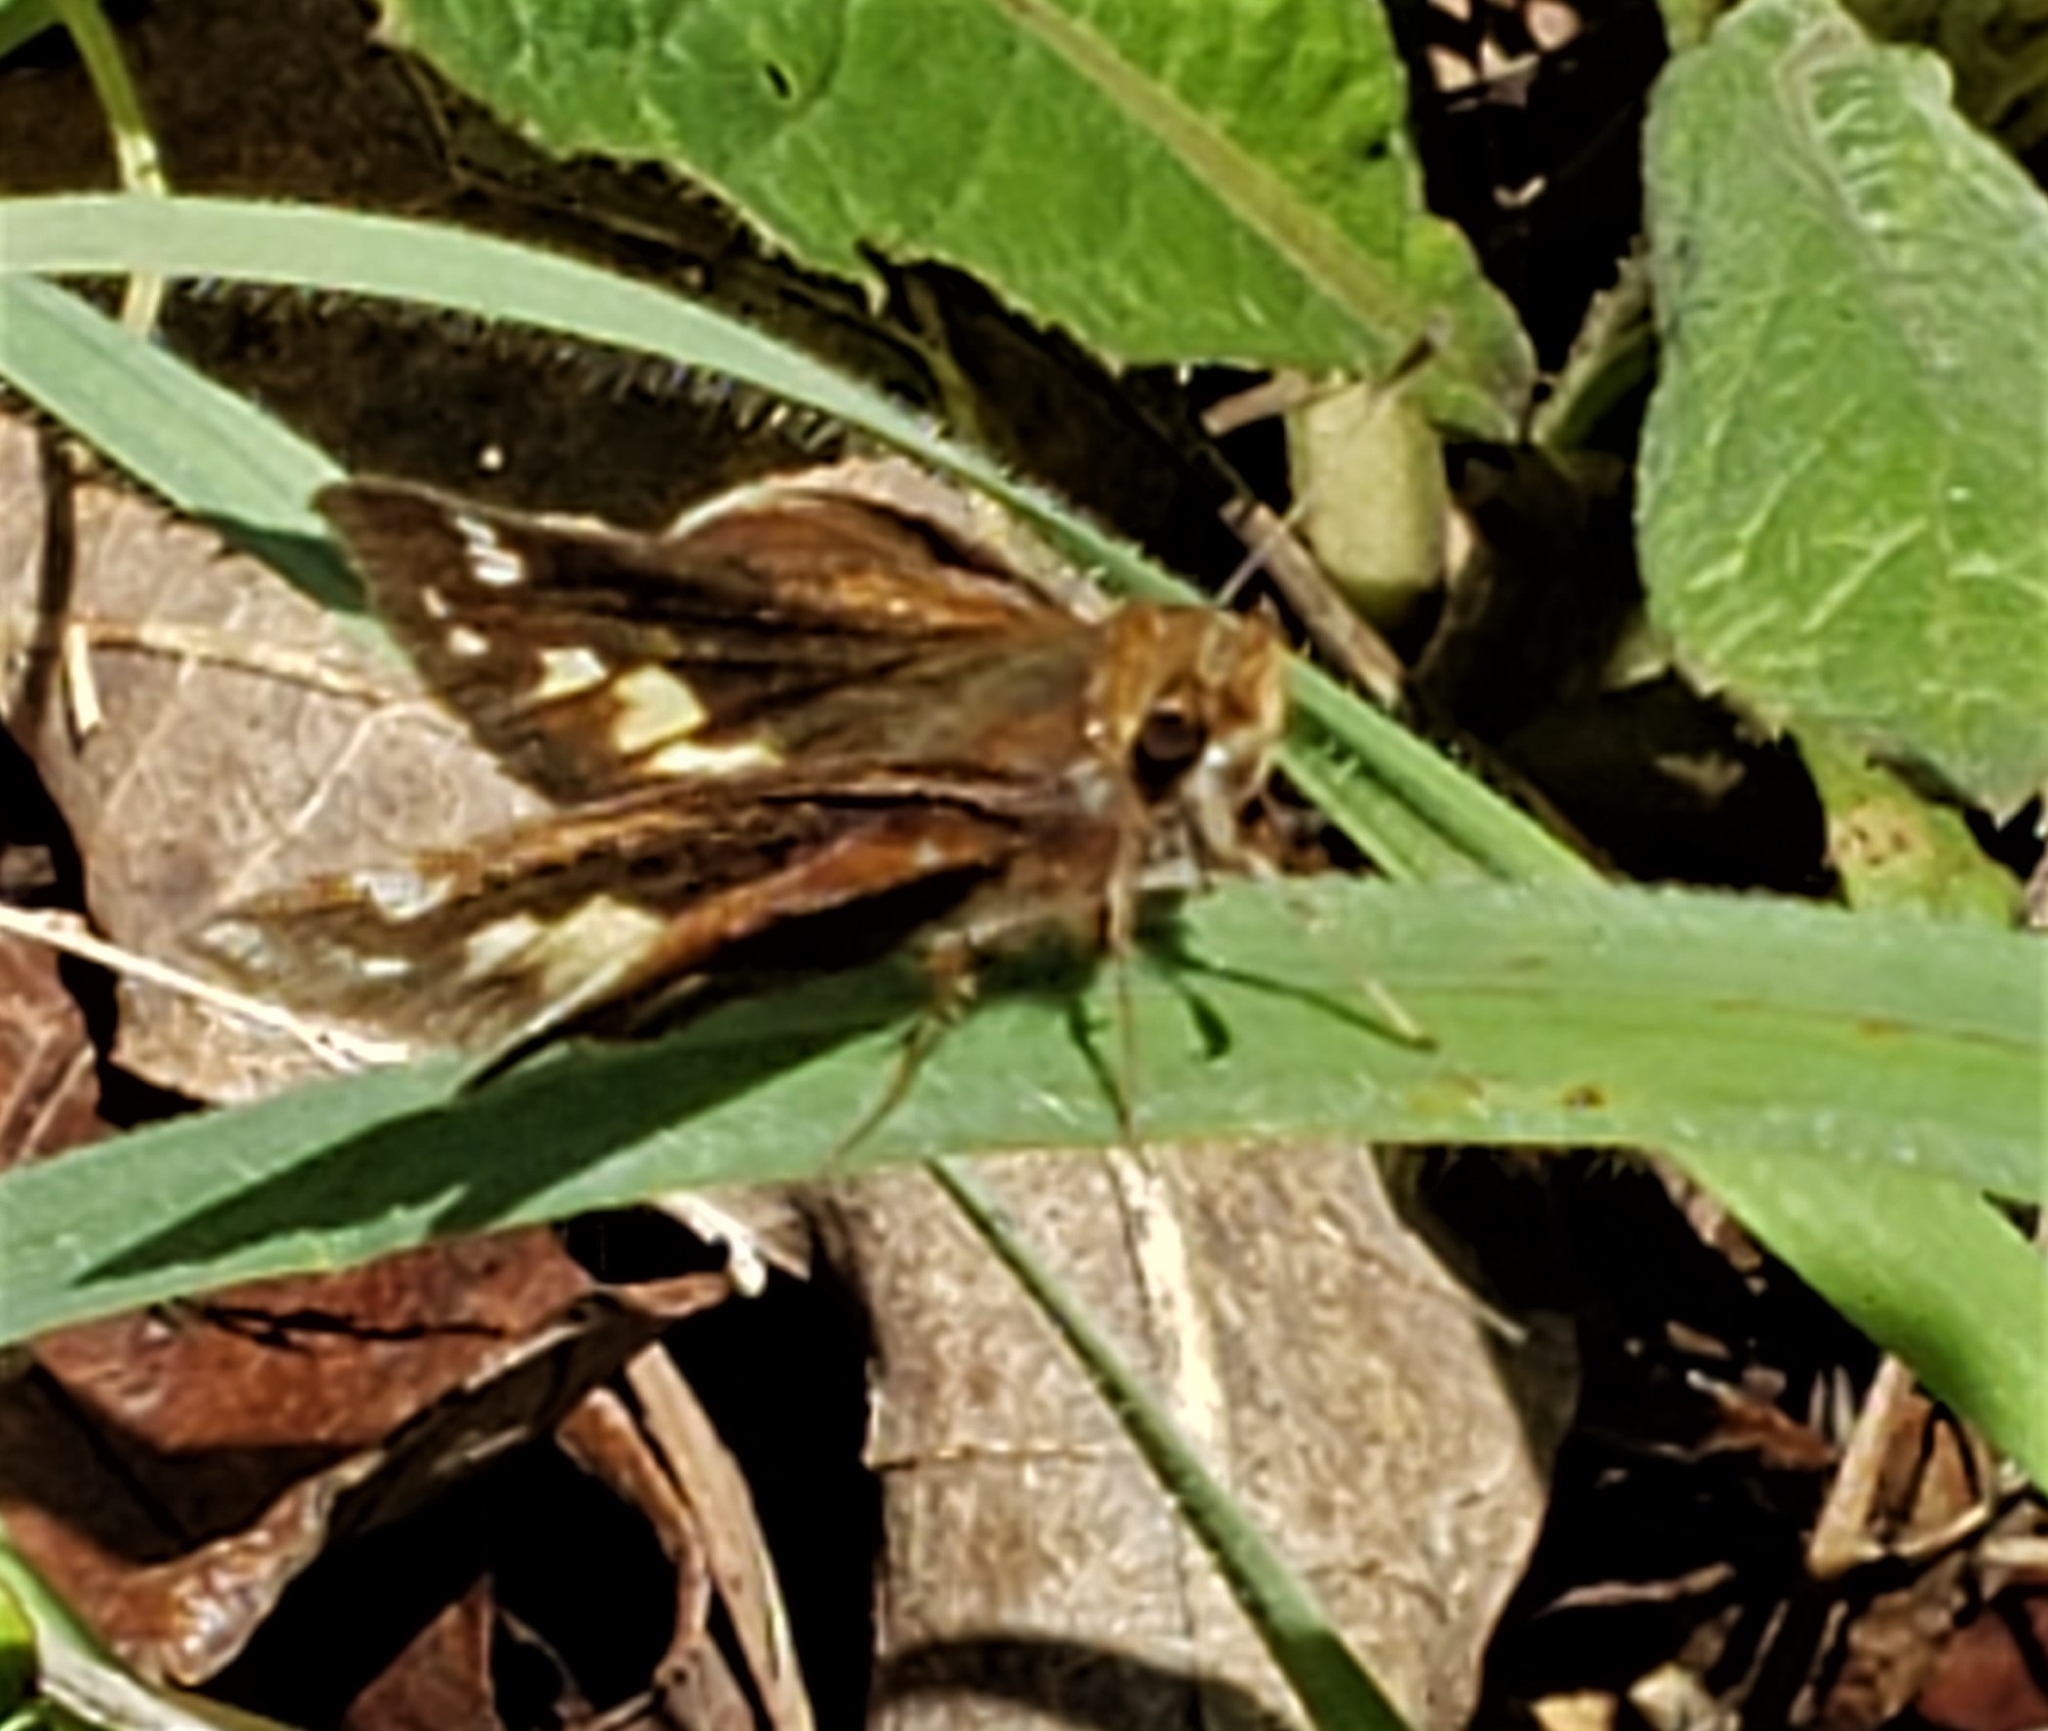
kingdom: Animalia
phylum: Arthropoda
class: Insecta
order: Lepidoptera
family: Hesperiidae
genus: Lon
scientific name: Lon zabulon
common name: Zabulon skipper
